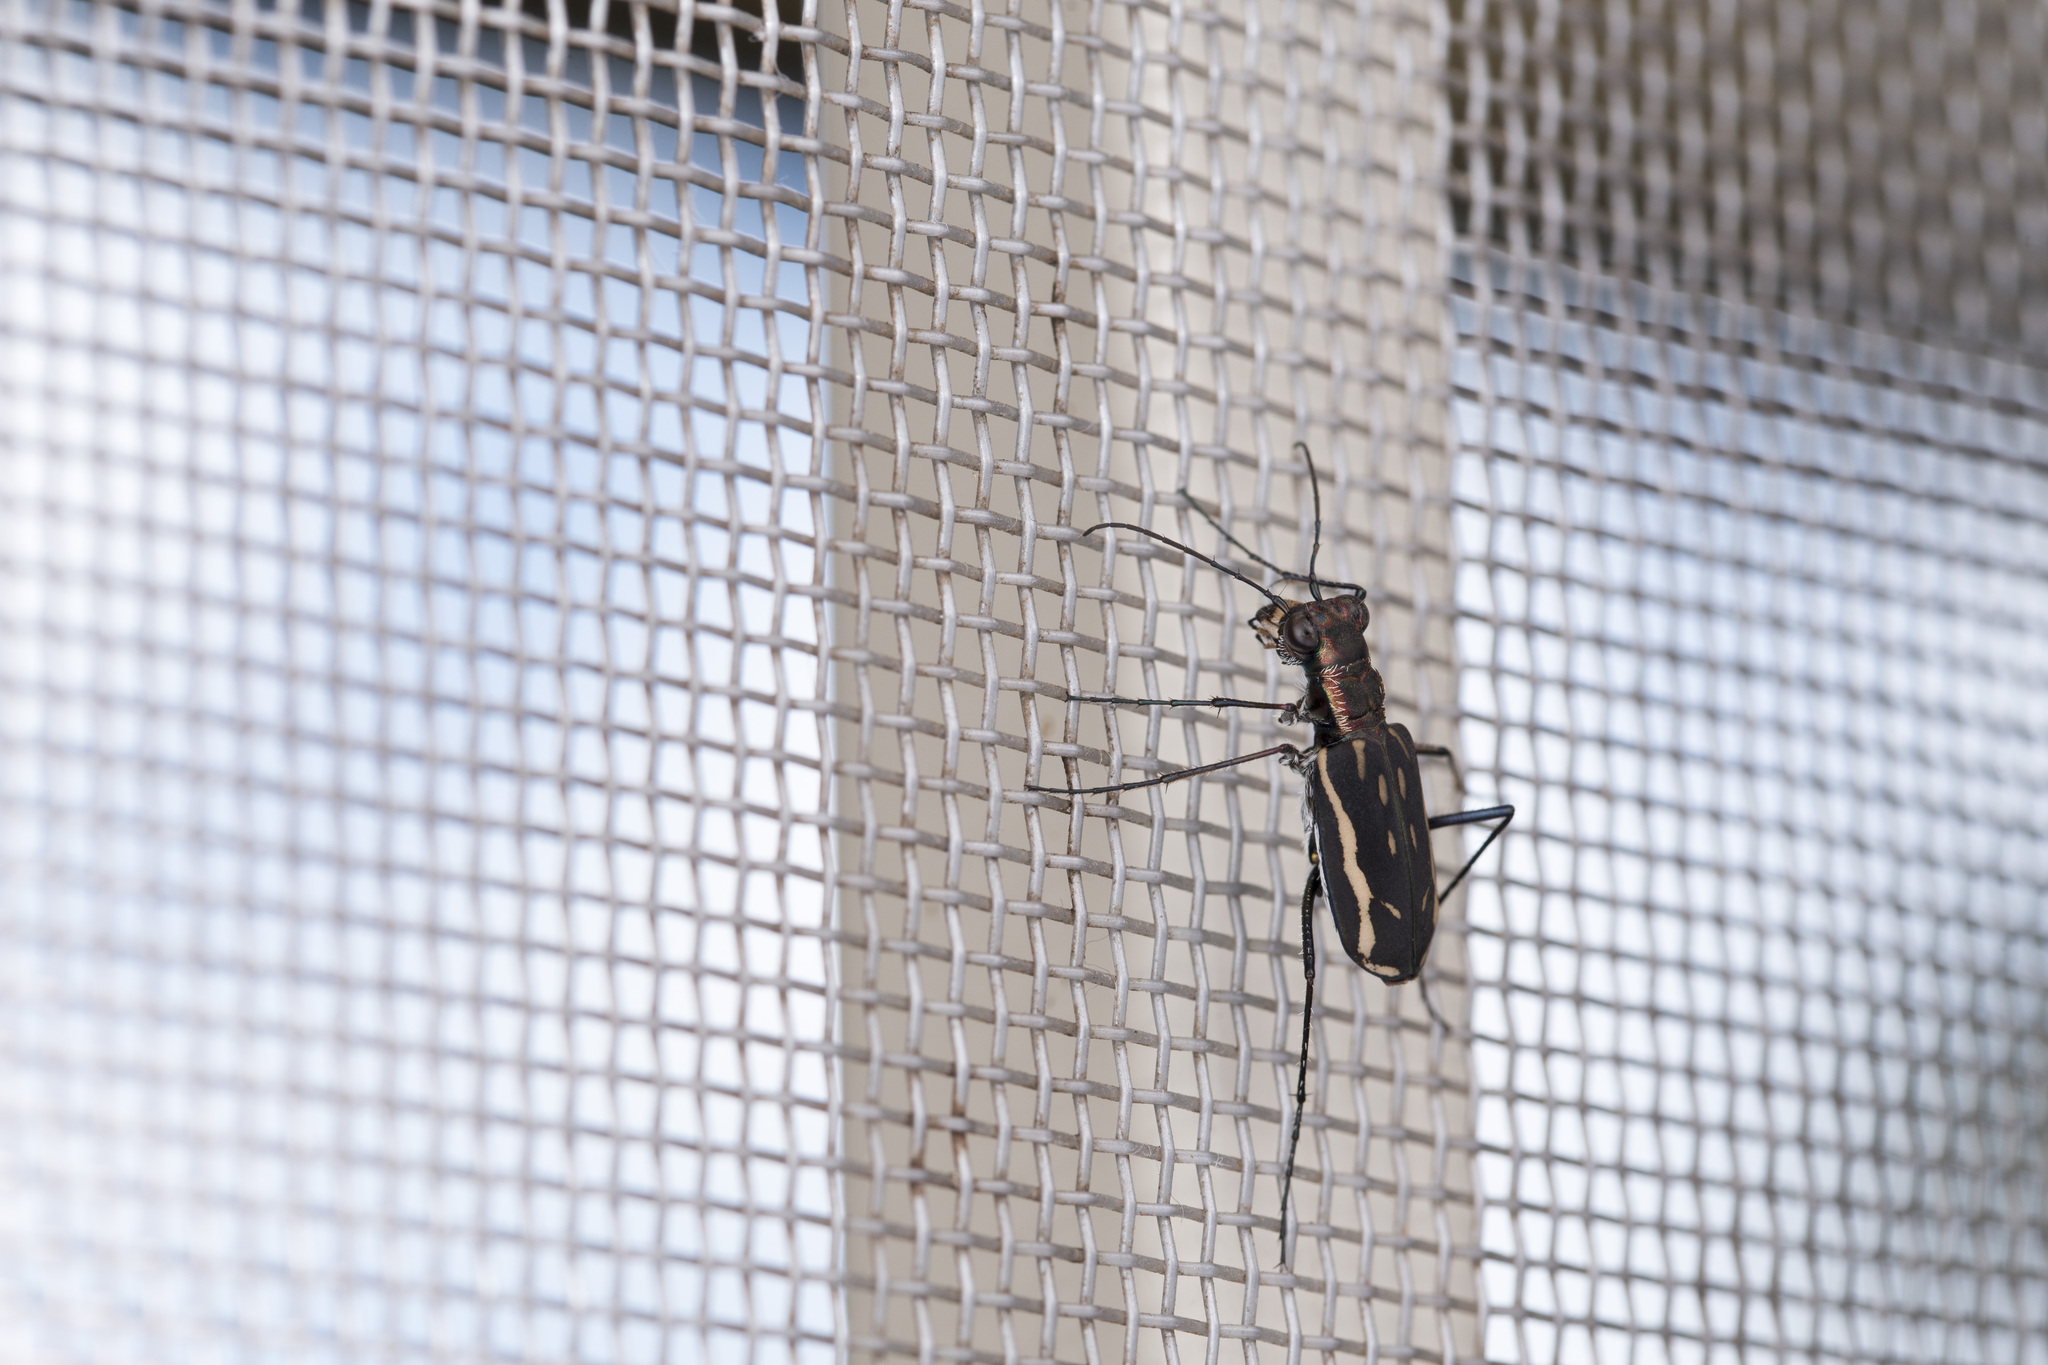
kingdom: Animalia
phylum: Arthropoda
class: Insecta
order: Coleoptera
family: Carabidae
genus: Lophyra
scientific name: Lophyra striolata
